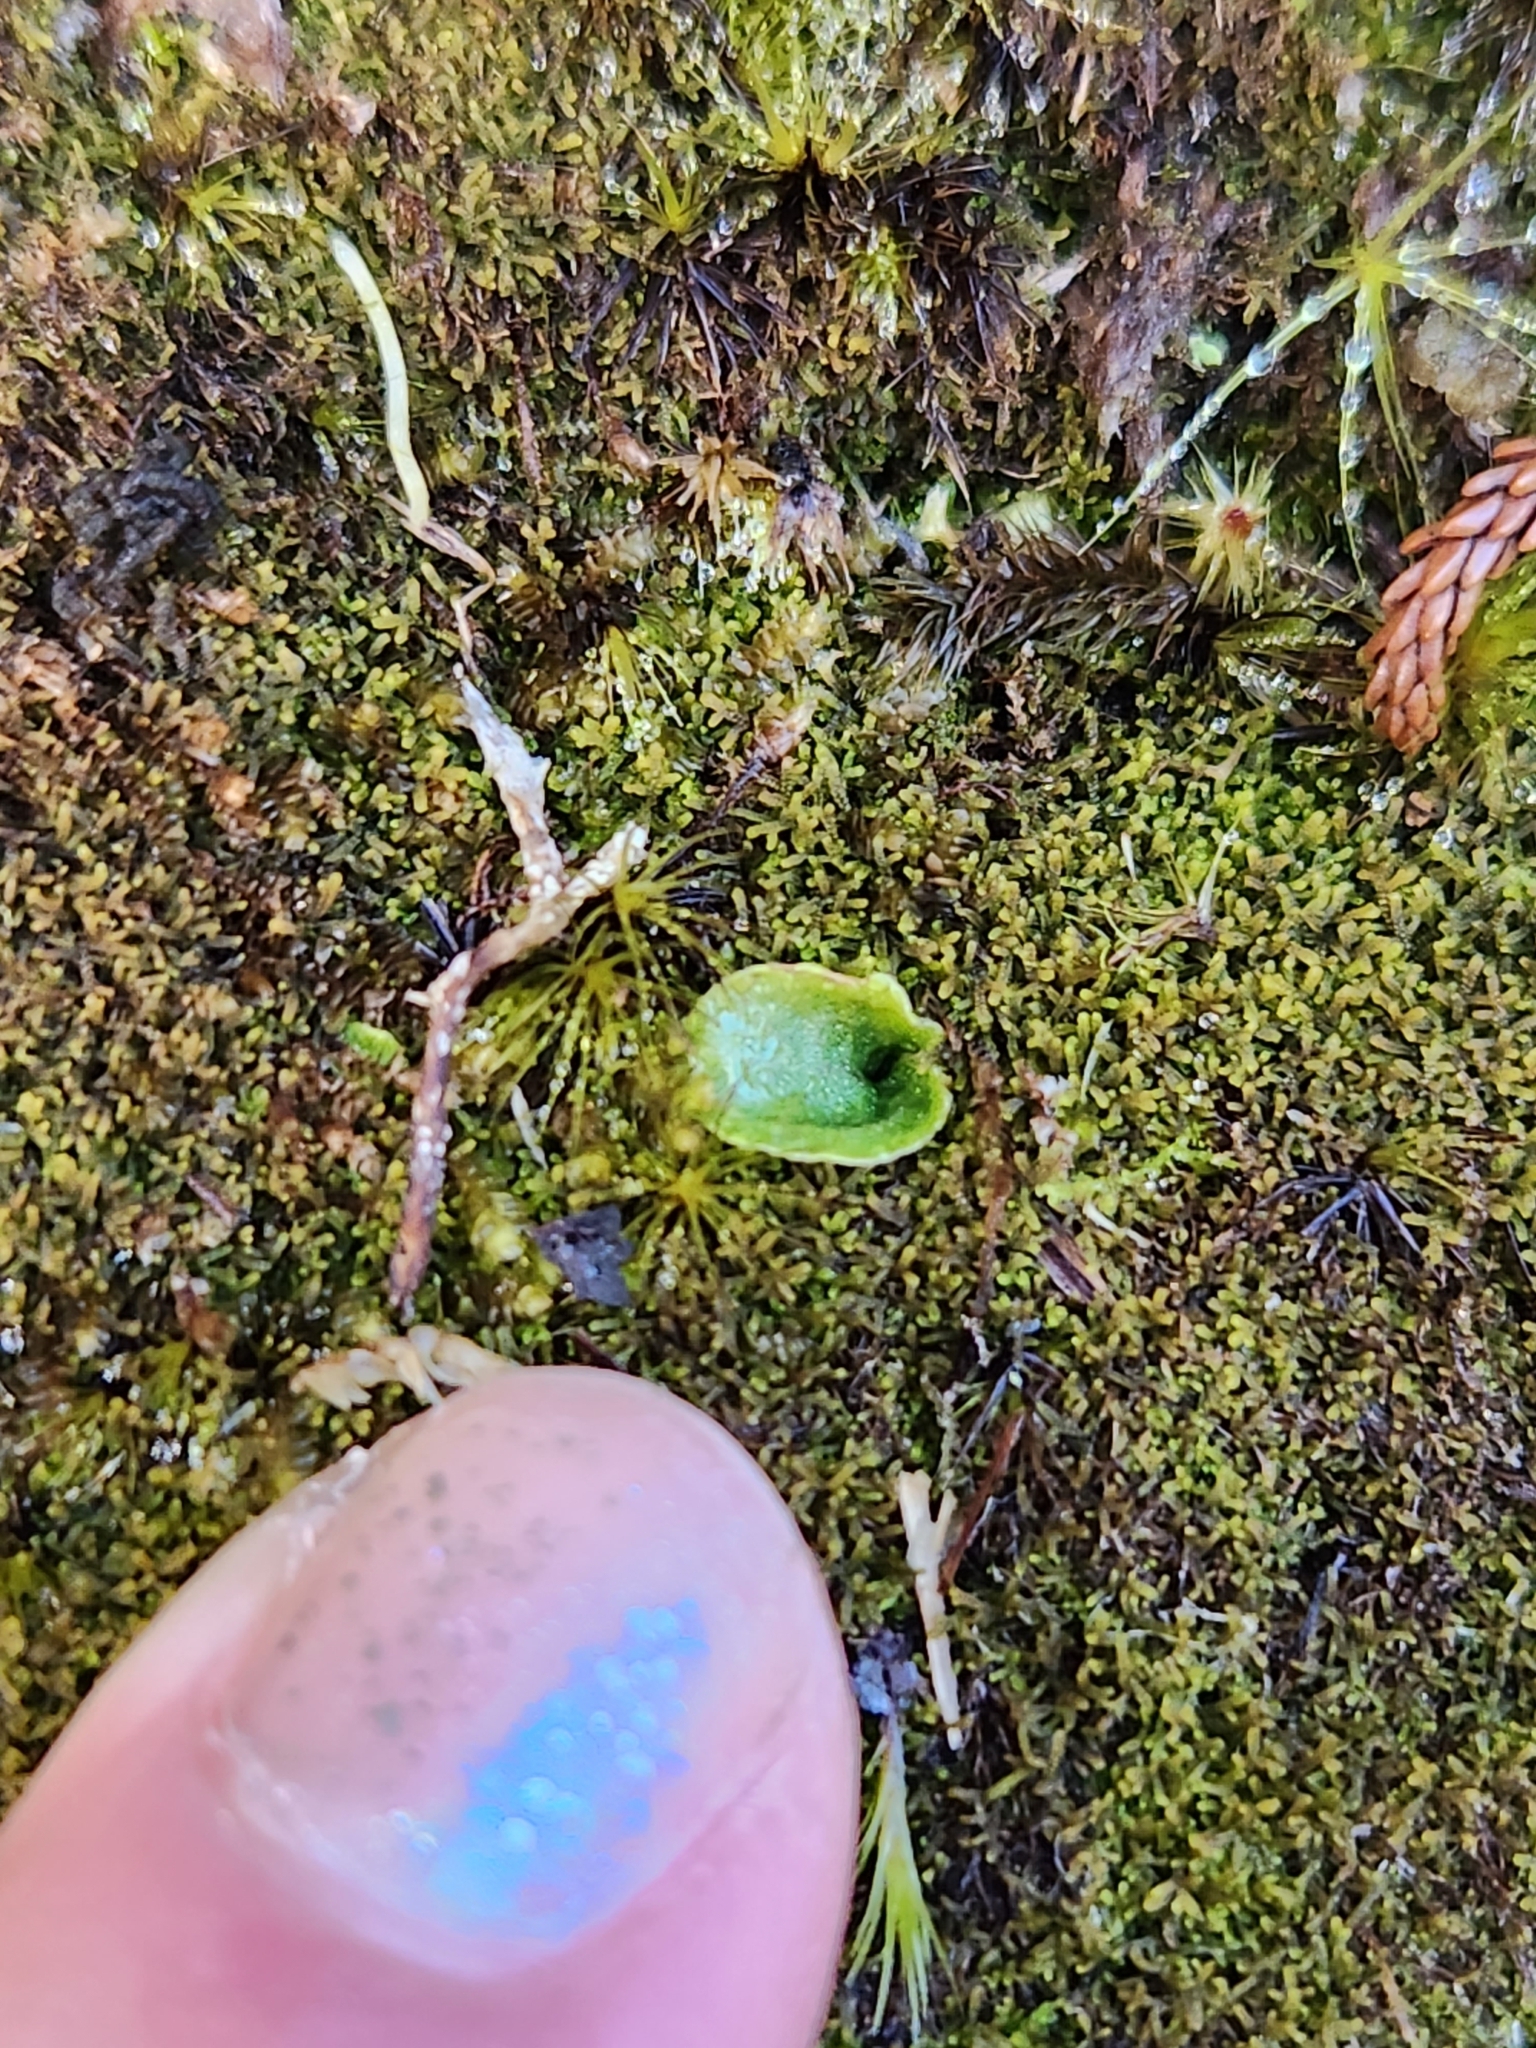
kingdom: Plantae
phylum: Tracheophyta
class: Liliopsida
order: Asparagales
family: Orchidaceae
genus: Corybas
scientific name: Corybas oblongus
